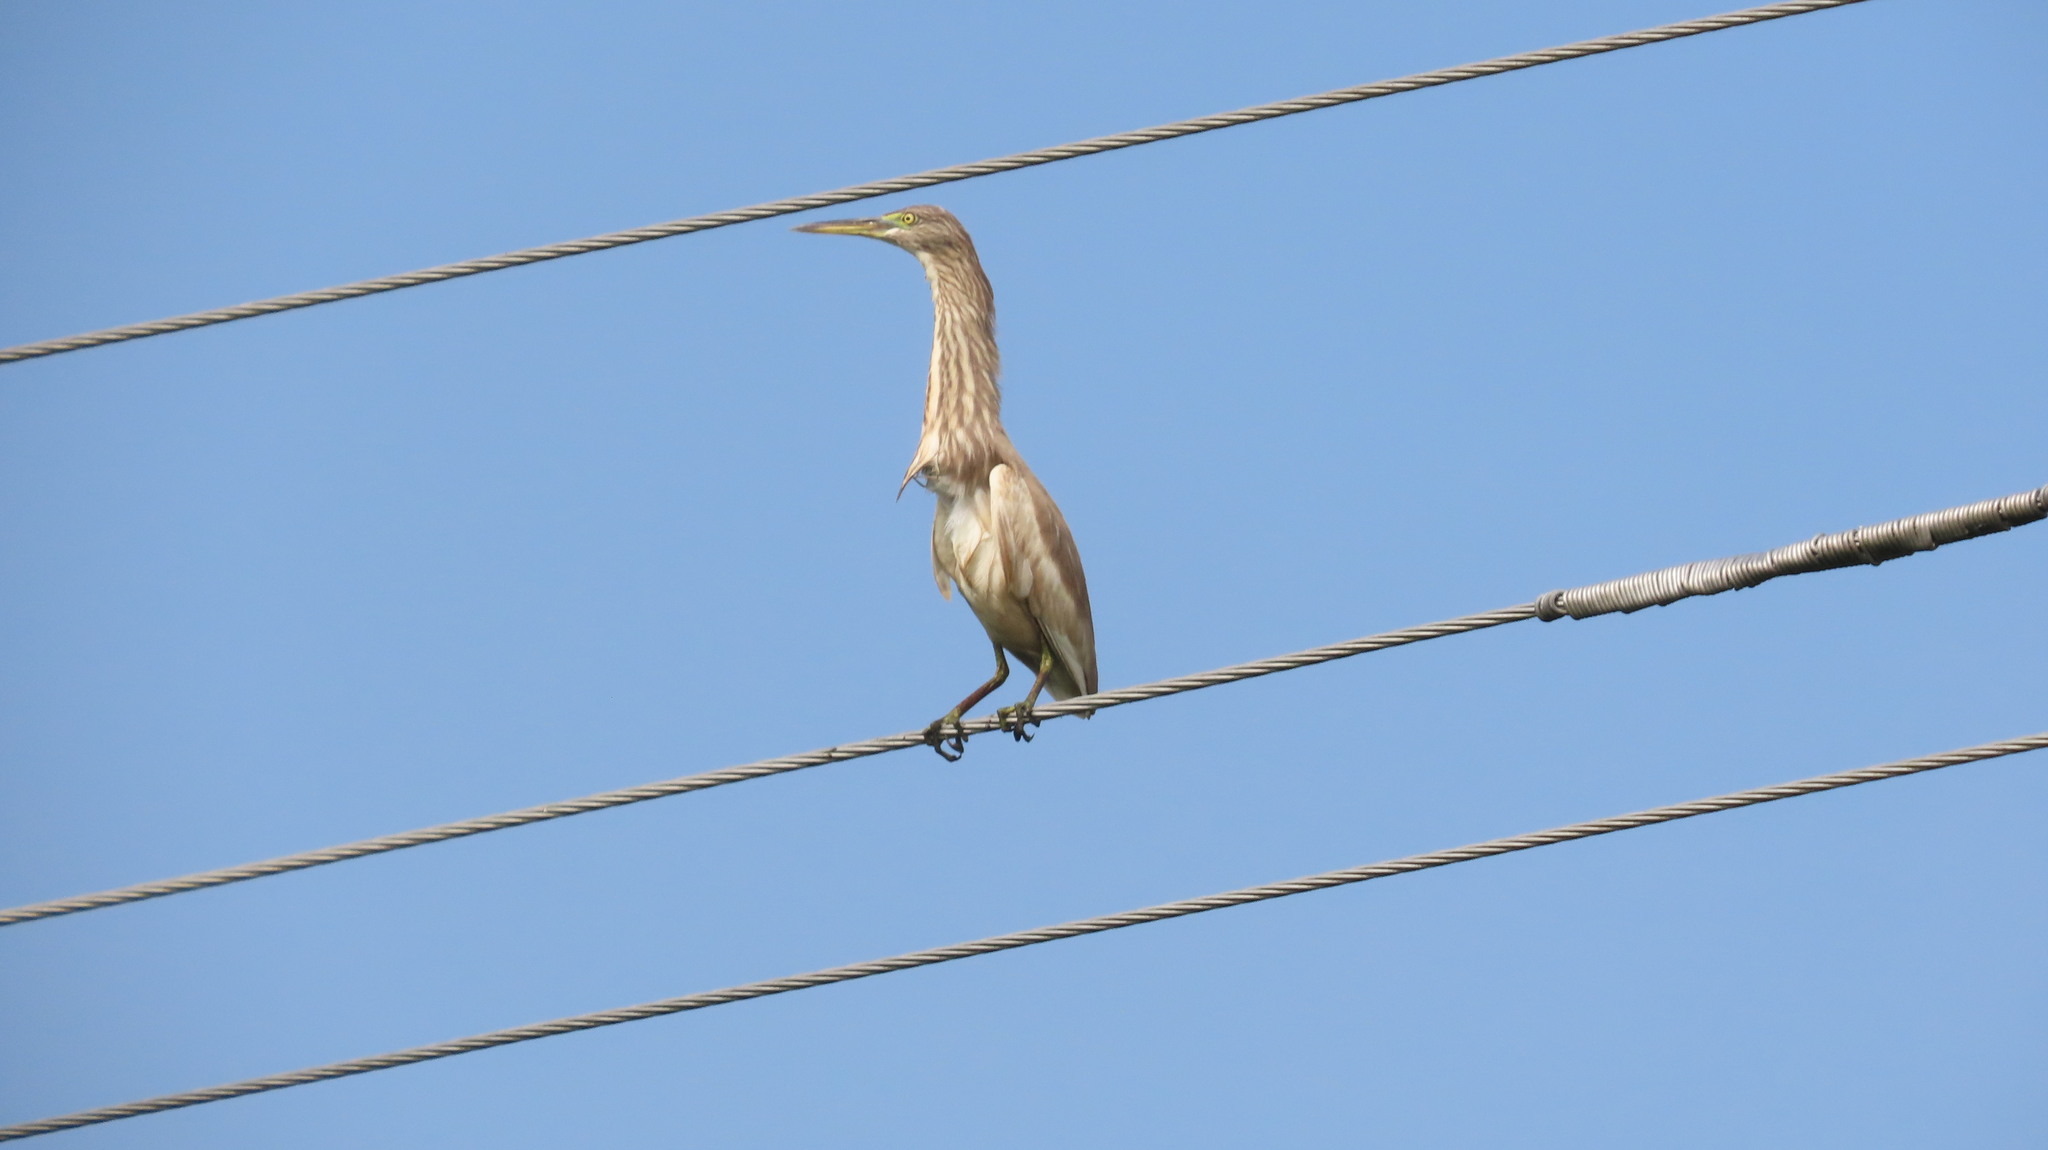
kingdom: Animalia
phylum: Chordata
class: Aves
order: Pelecaniformes
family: Ardeidae
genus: Ardeola
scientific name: Ardeola grayii
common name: Indian pond heron
